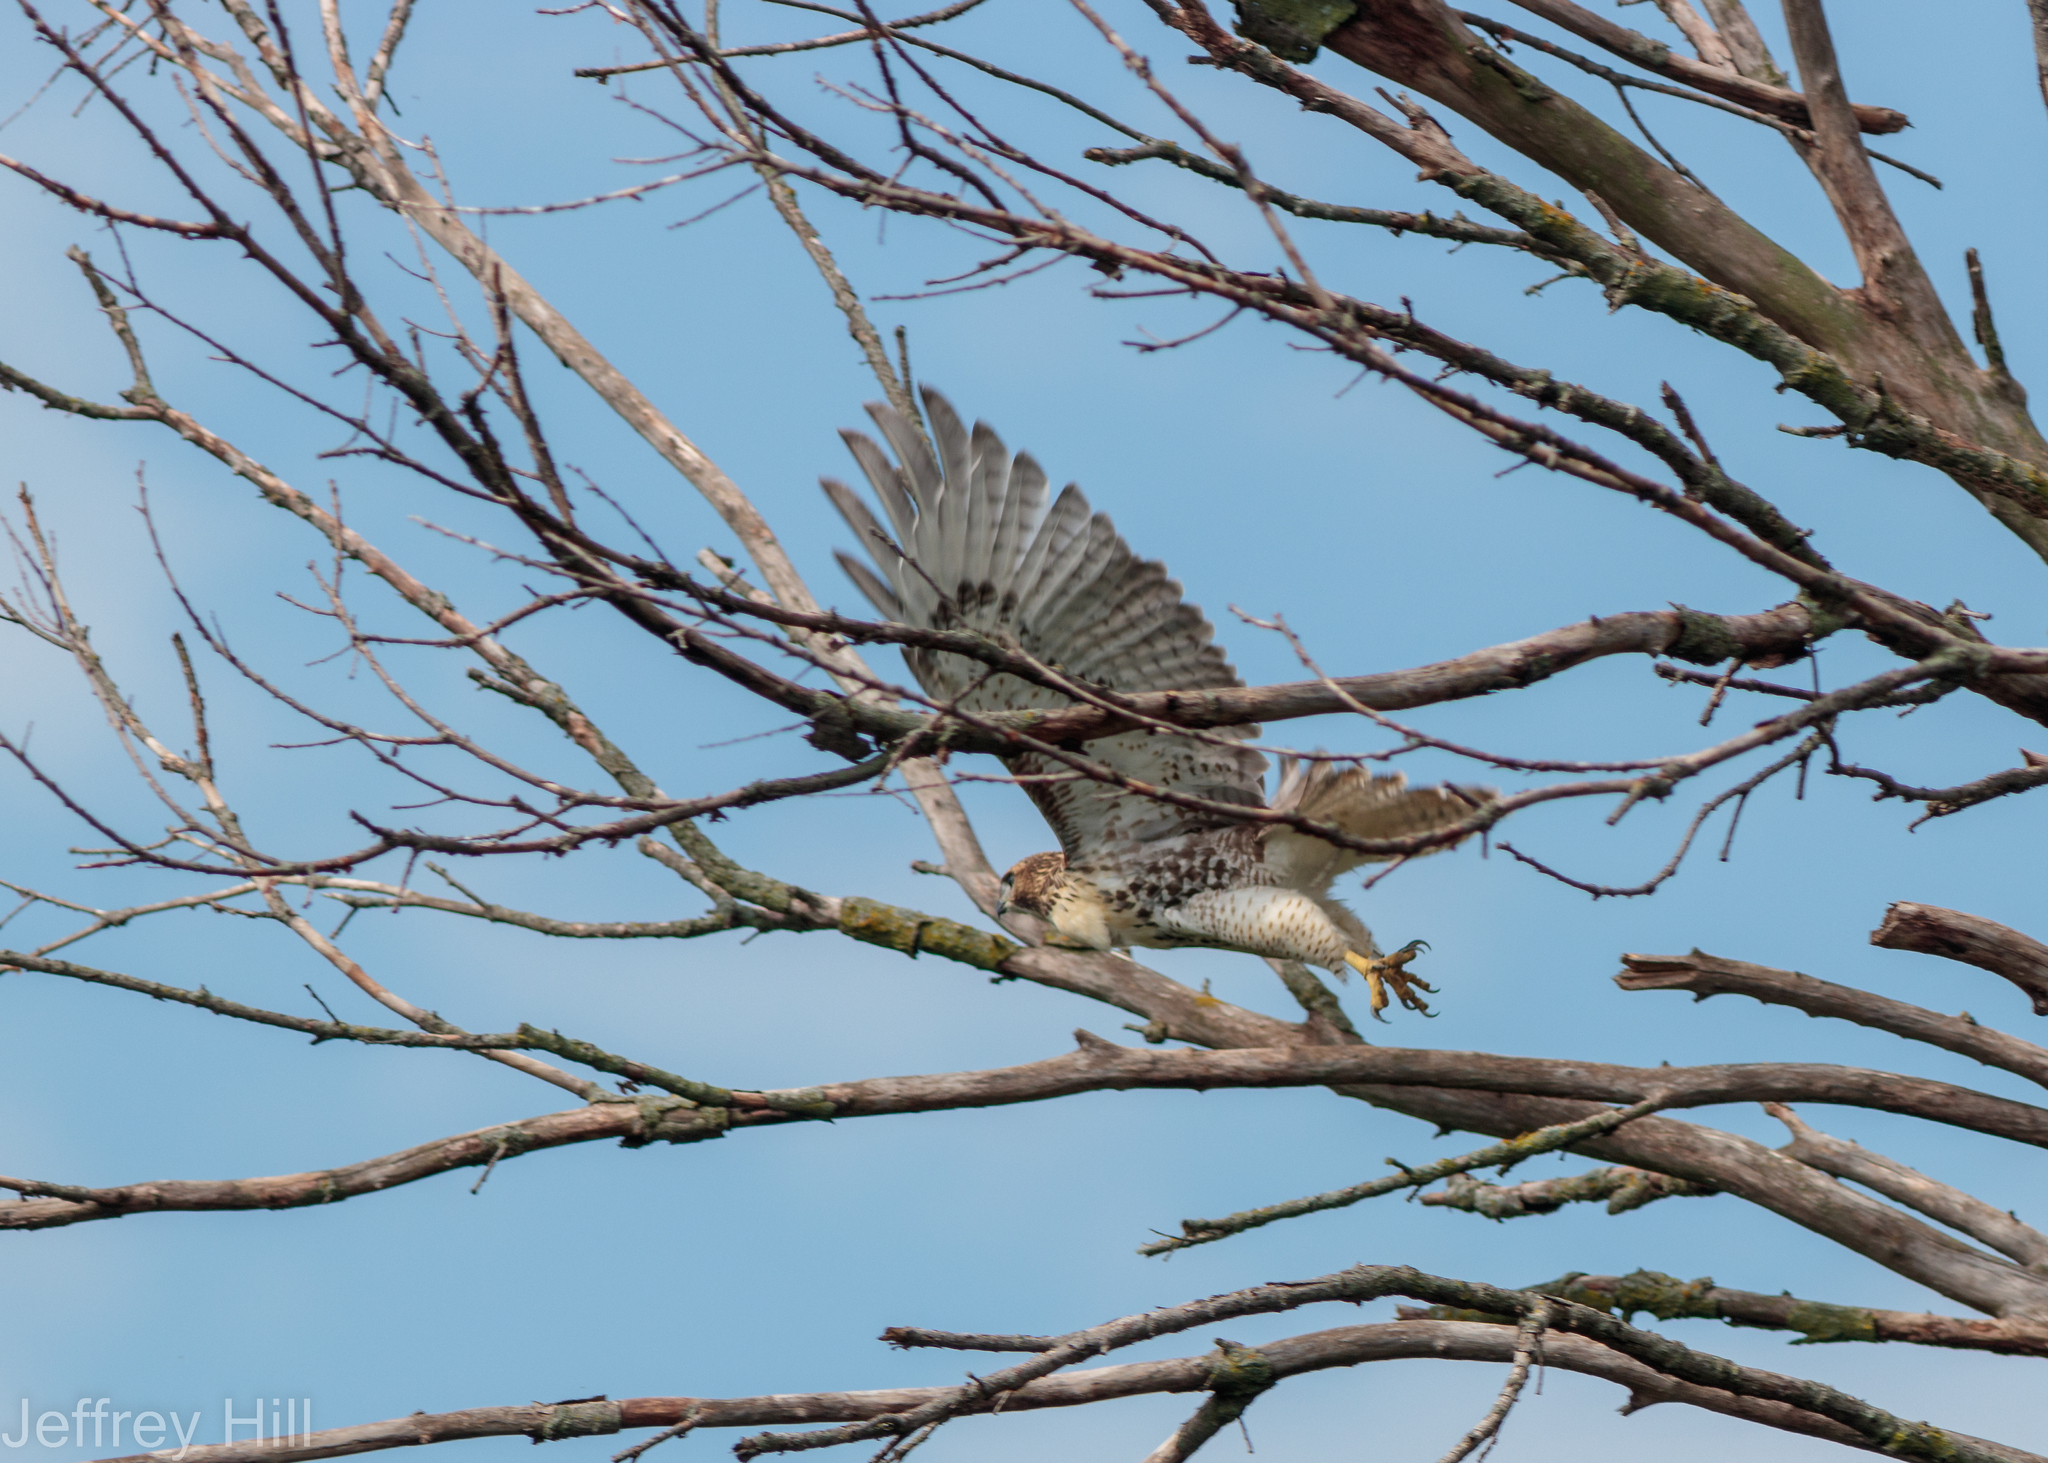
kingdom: Animalia
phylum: Chordata
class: Aves
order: Accipitriformes
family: Accipitridae
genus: Buteo
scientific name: Buteo jamaicensis
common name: Red-tailed hawk
